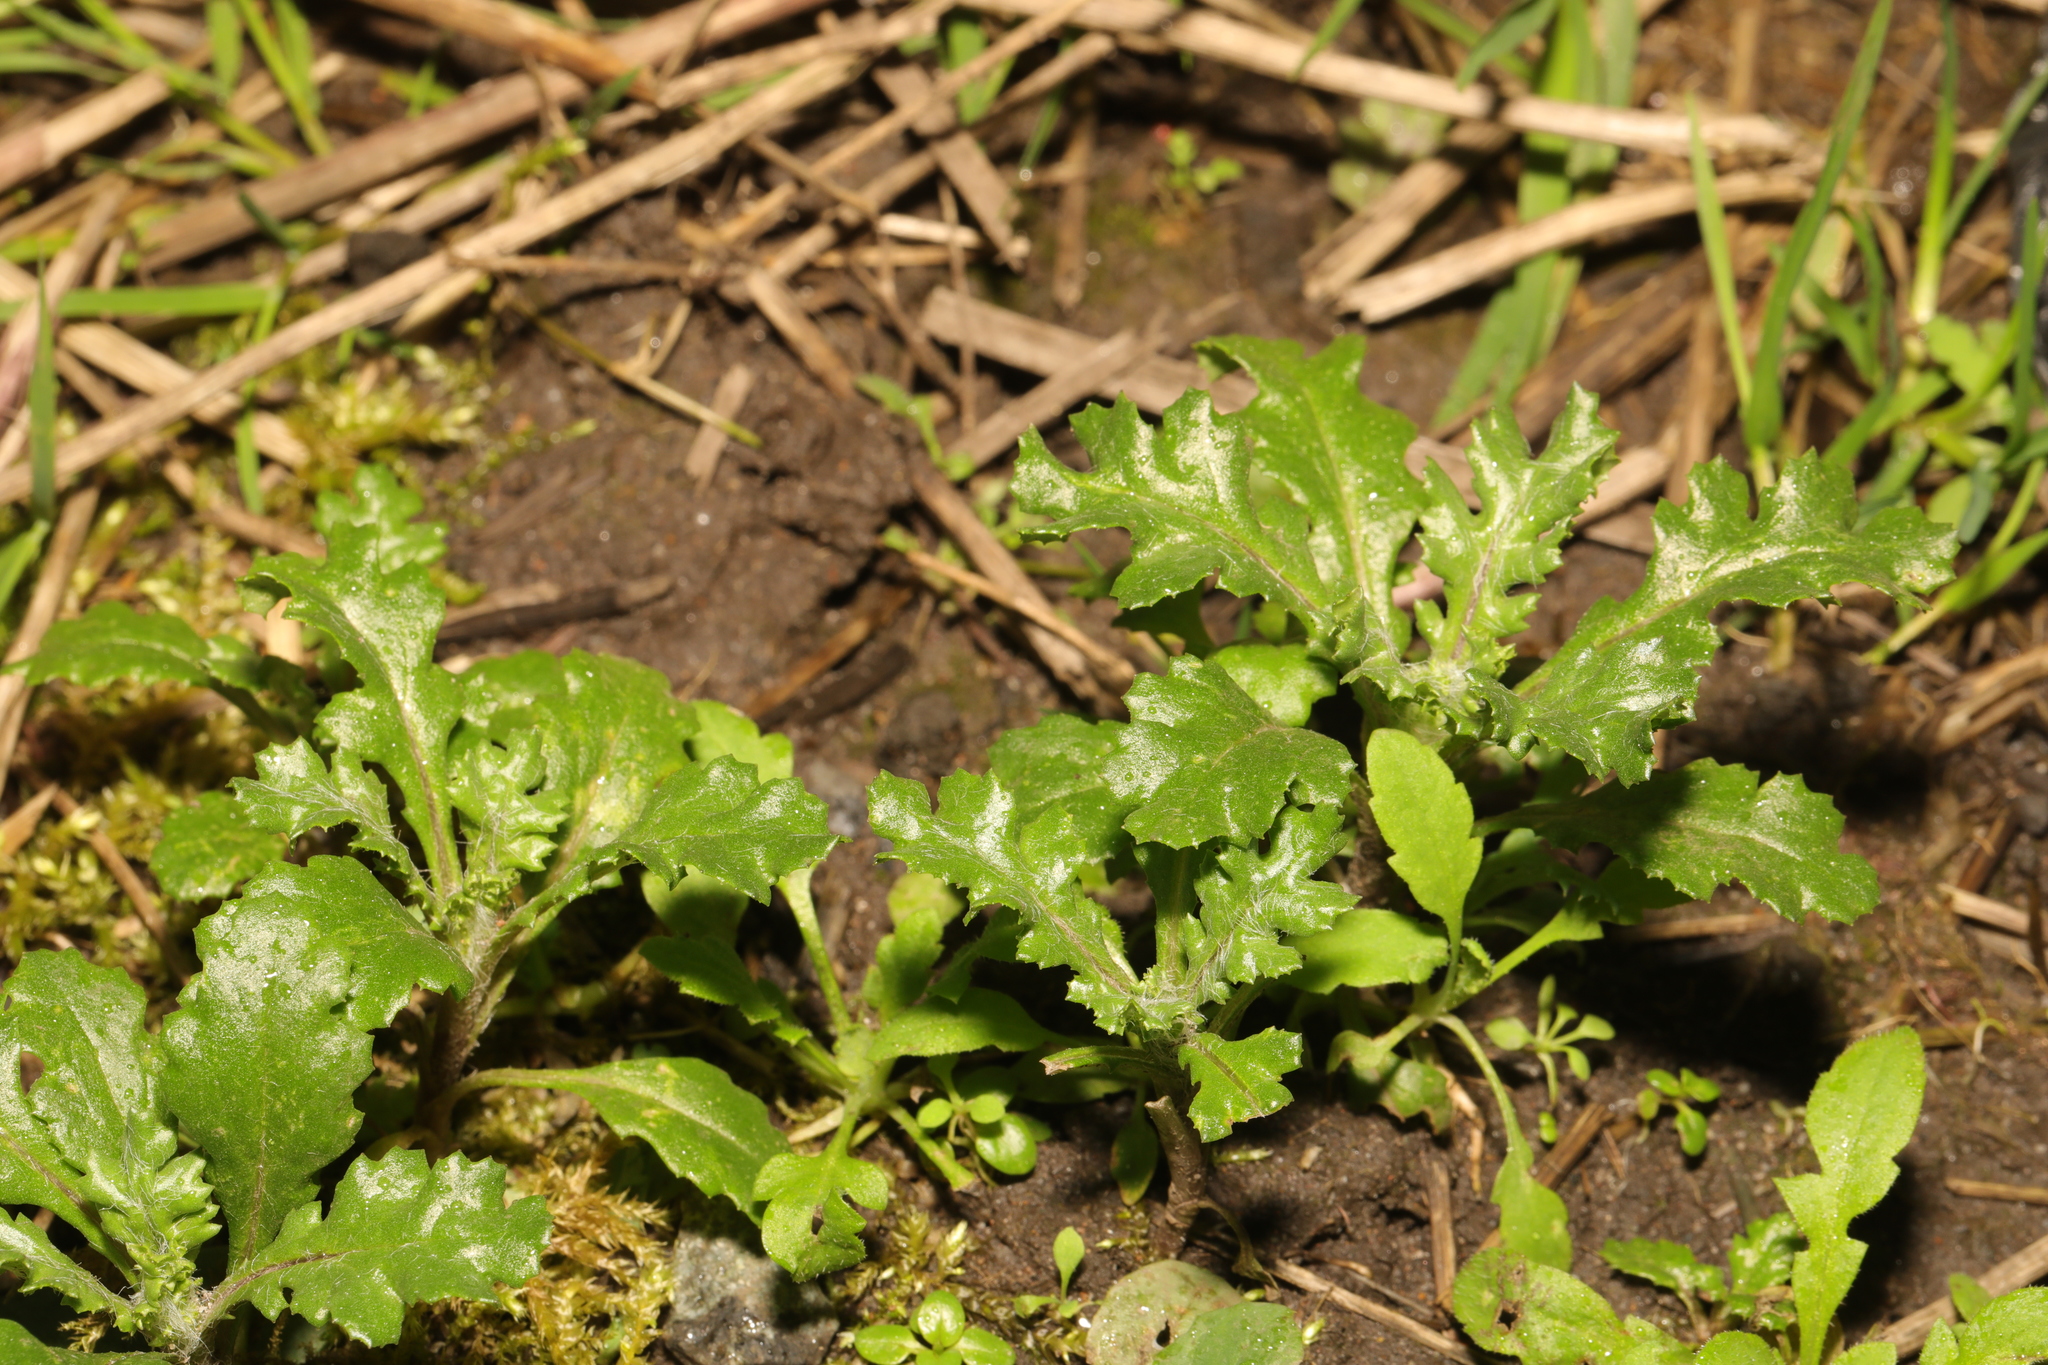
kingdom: Plantae
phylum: Tracheophyta
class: Magnoliopsida
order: Asterales
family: Asteraceae
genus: Senecio
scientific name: Senecio vulgaris
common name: Old-man-in-the-spring
